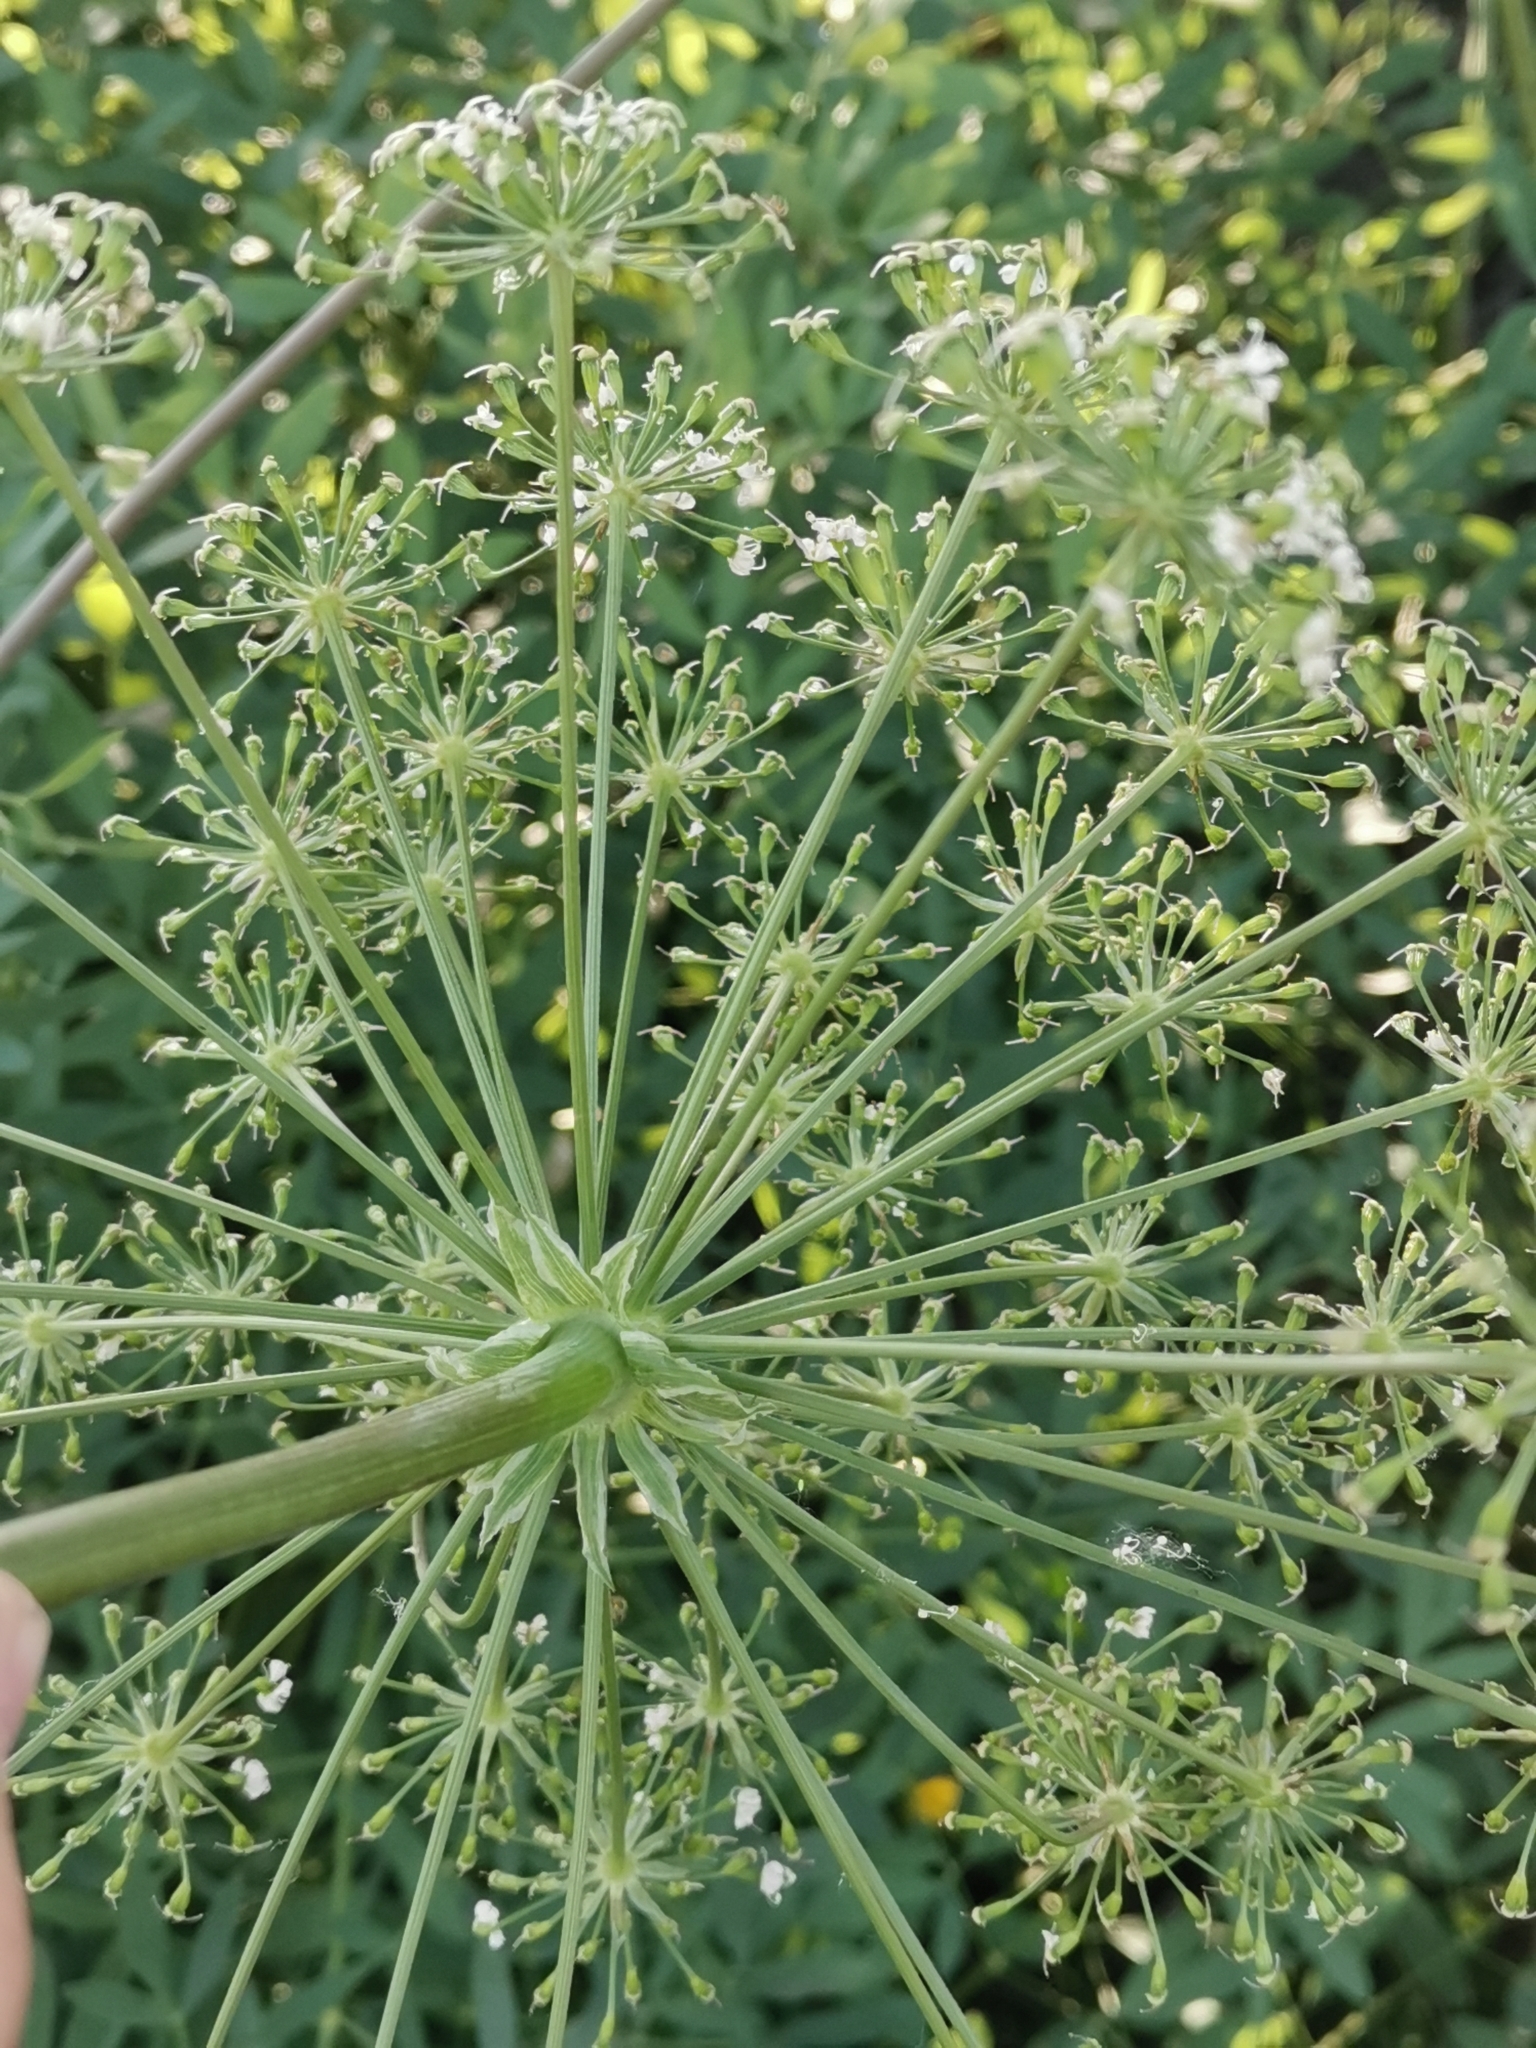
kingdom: Plantae
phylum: Tracheophyta
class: Magnoliopsida
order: Apiales
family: Apiaceae
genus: Siler
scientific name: Siler montanum
